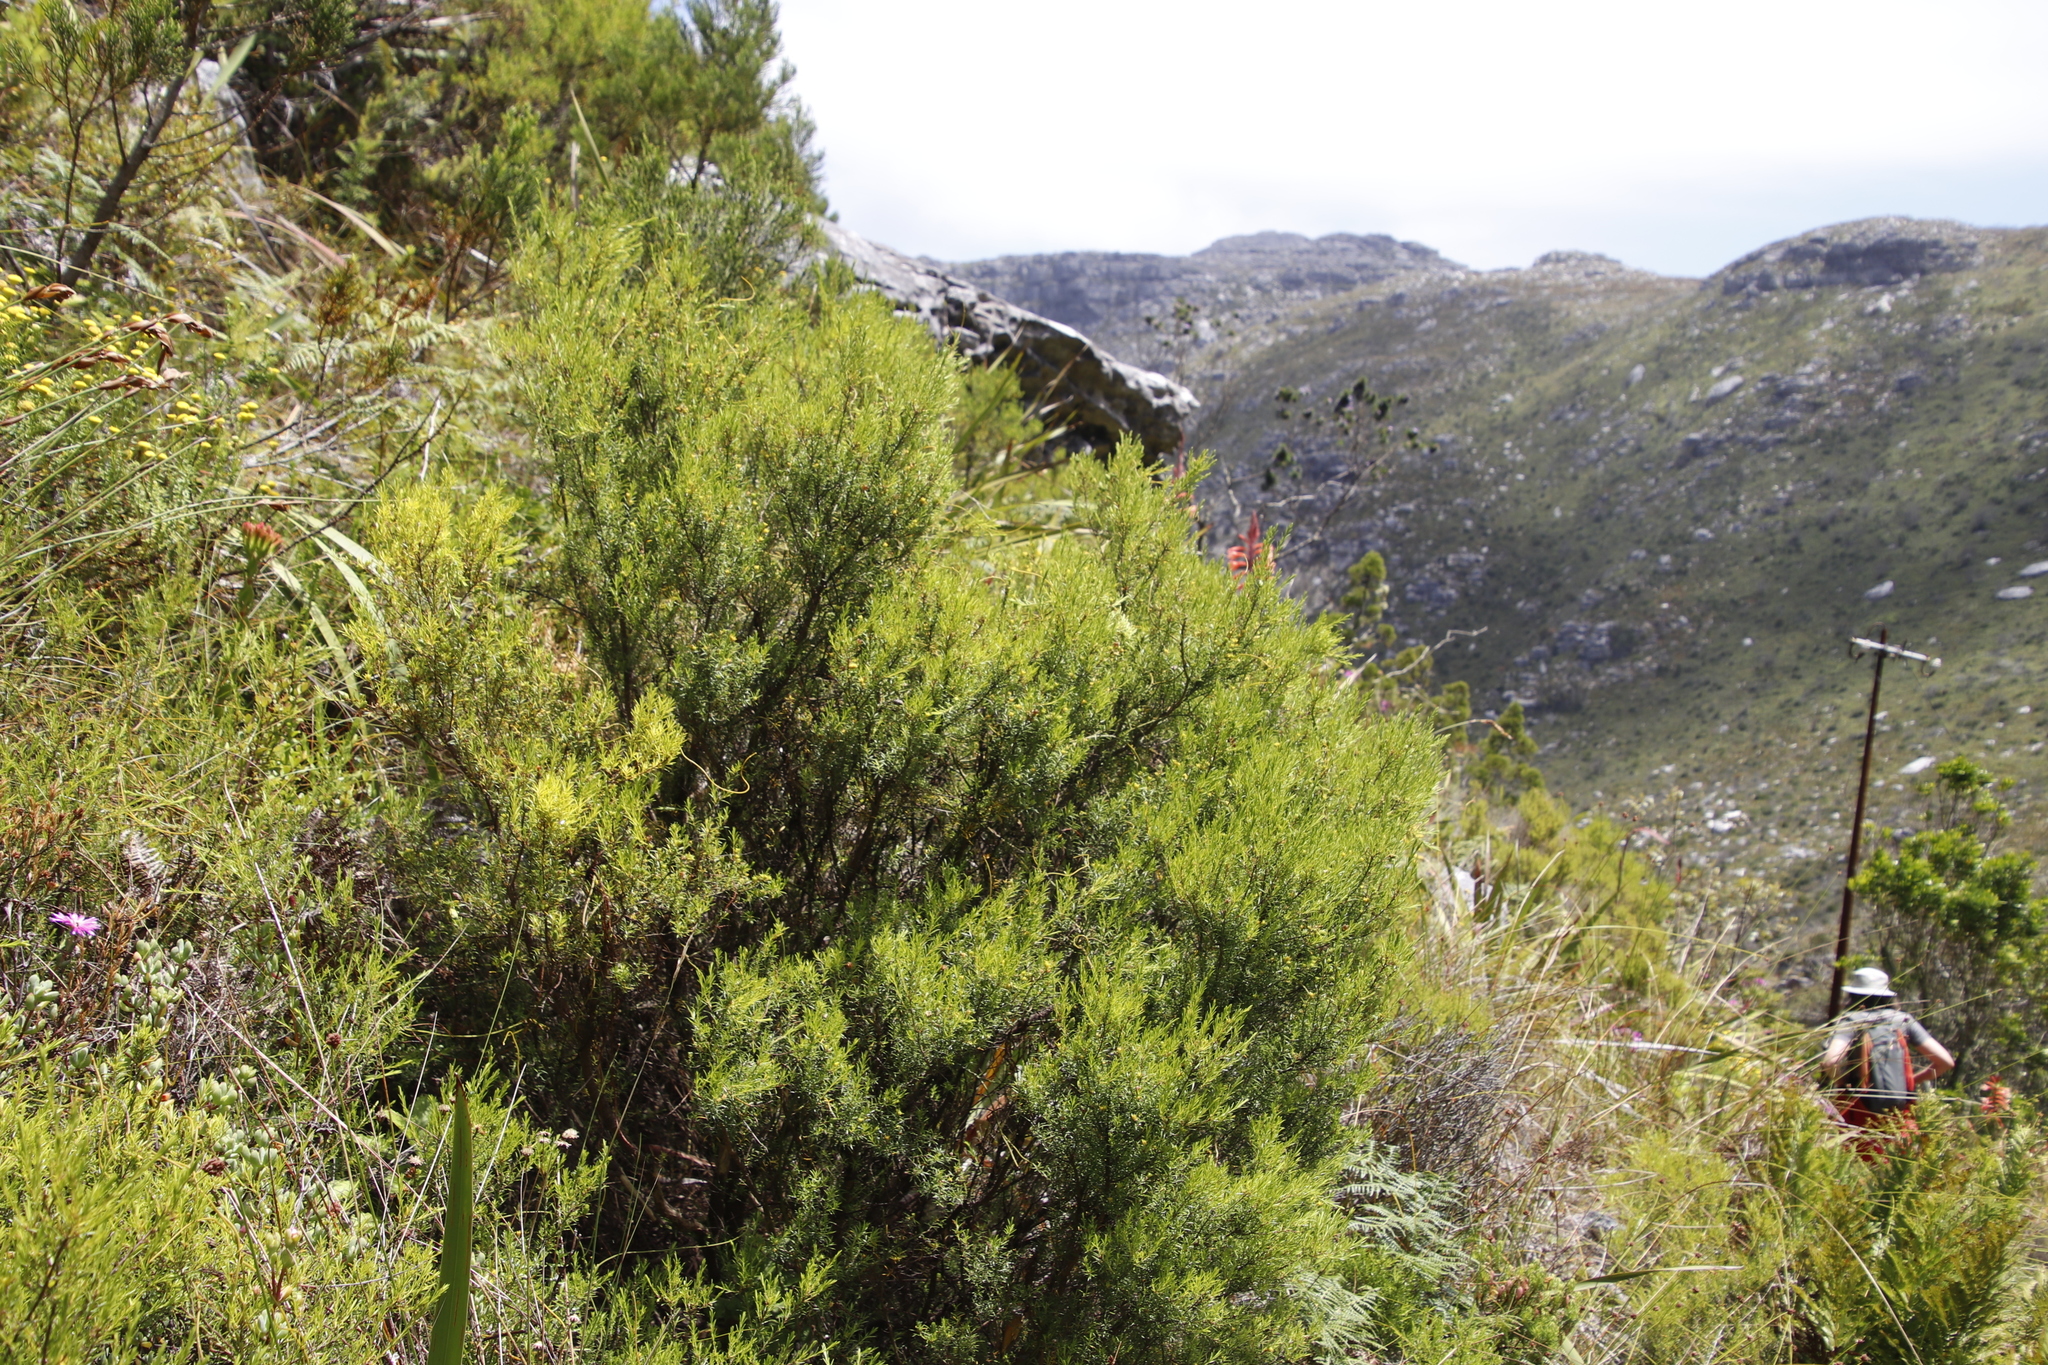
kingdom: Plantae
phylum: Tracheophyta
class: Magnoliopsida
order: Sapindales
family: Rutaceae
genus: Coleonema
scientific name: Coleonema album
